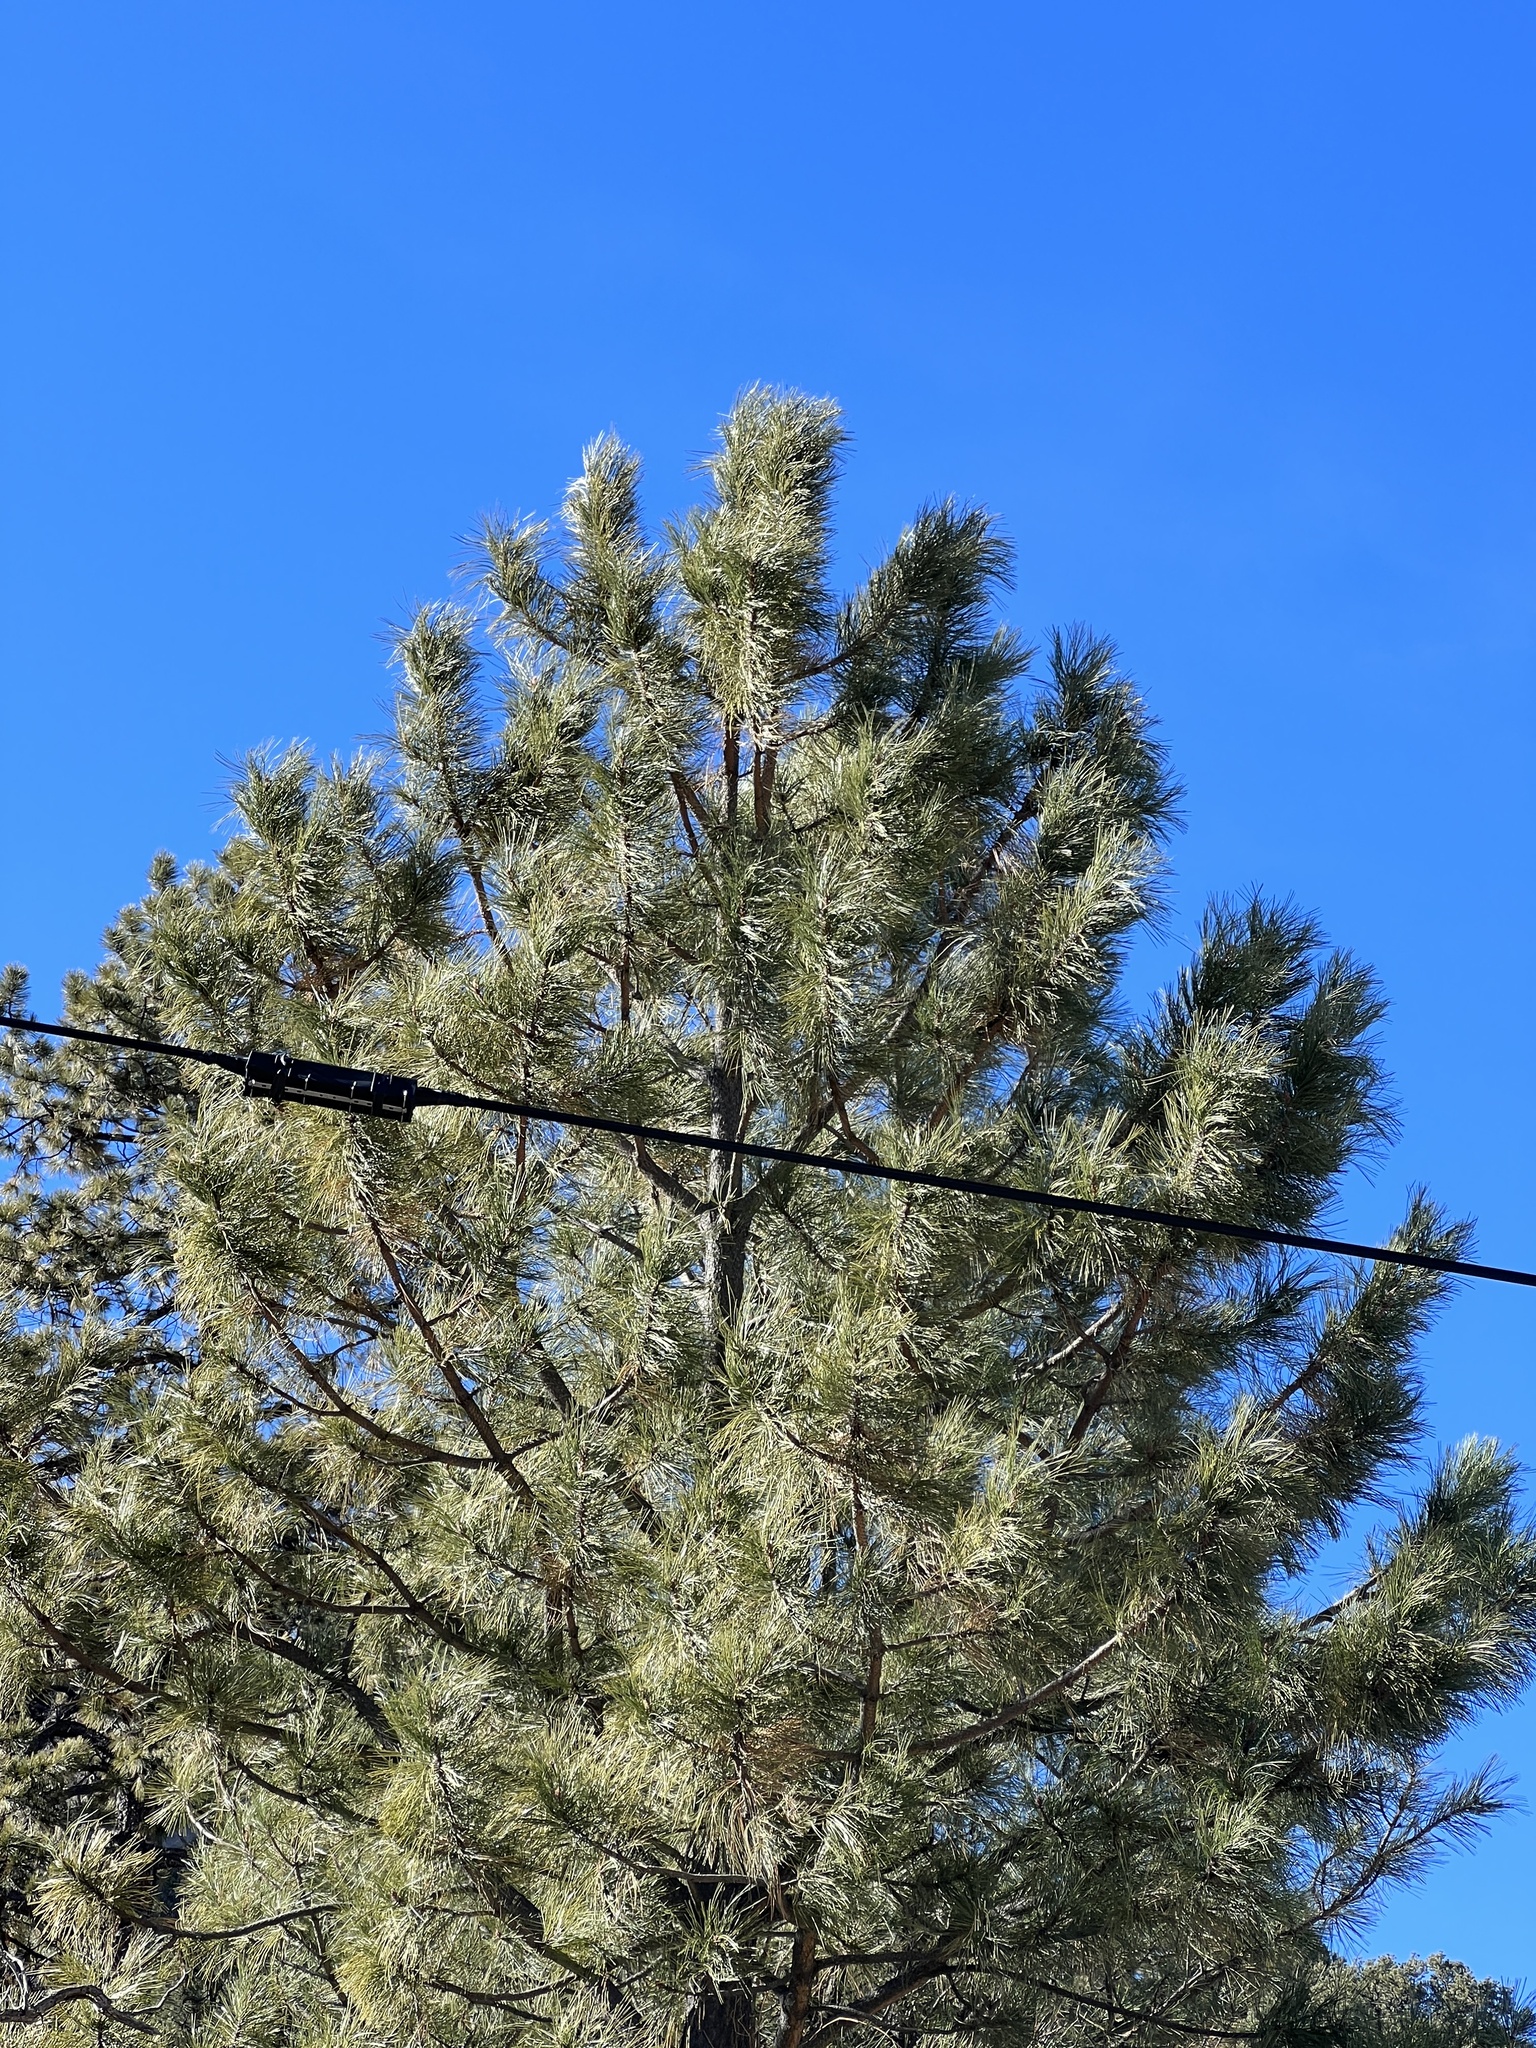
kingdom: Plantae
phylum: Tracheophyta
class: Pinopsida
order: Pinales
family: Pinaceae
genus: Pinus
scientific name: Pinus ponderosa
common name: Western yellow-pine
